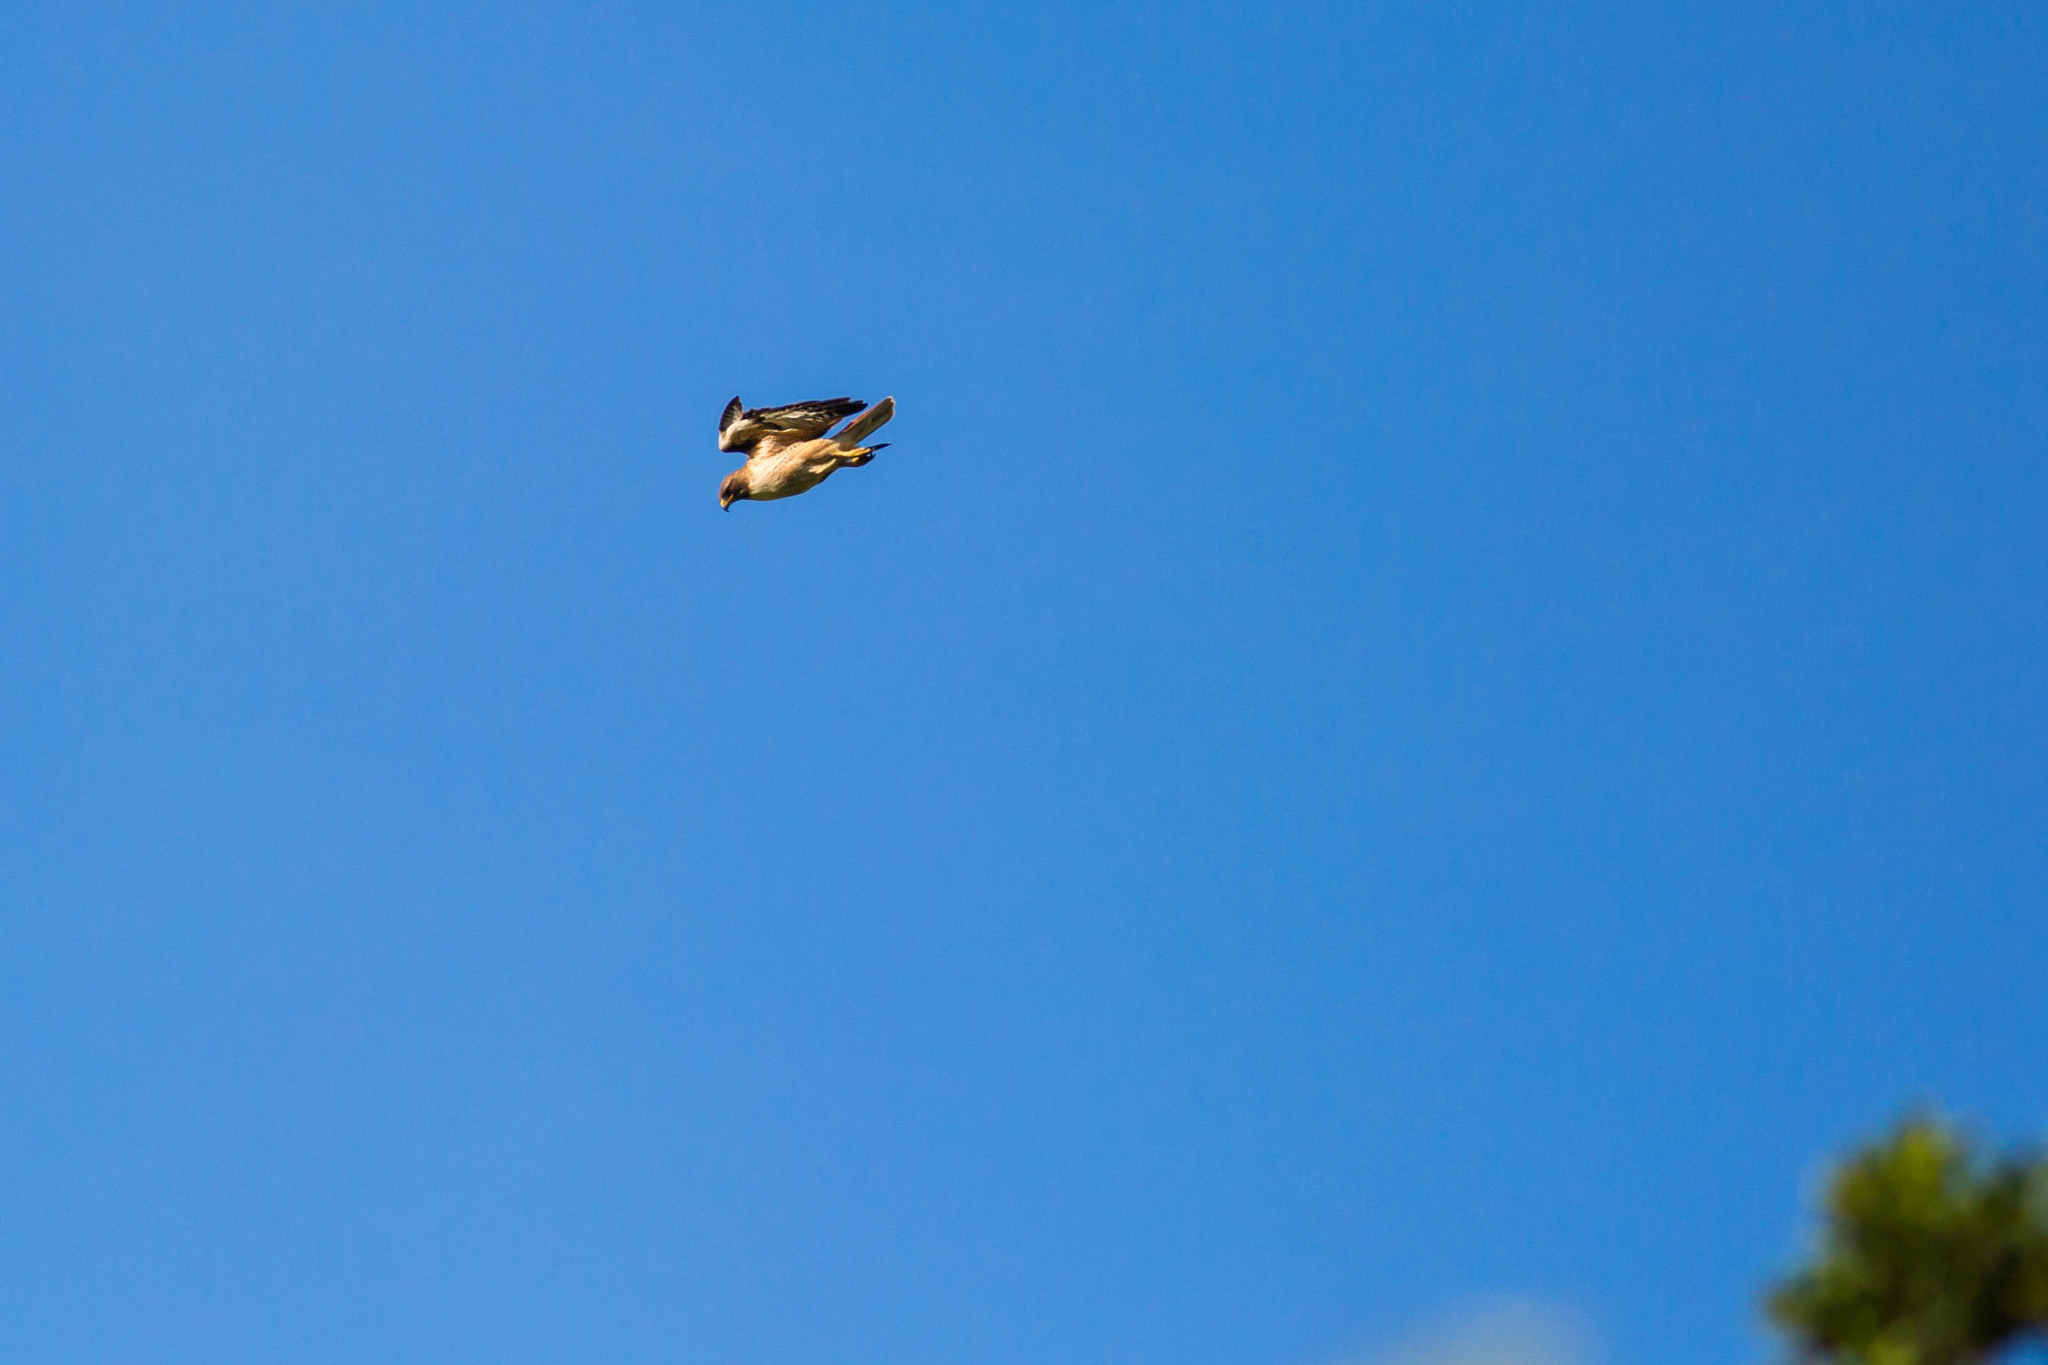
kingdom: Animalia
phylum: Chordata
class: Aves
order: Accipitriformes
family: Accipitridae
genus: Buteo
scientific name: Buteo jamaicensis
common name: Red-tailed hawk
